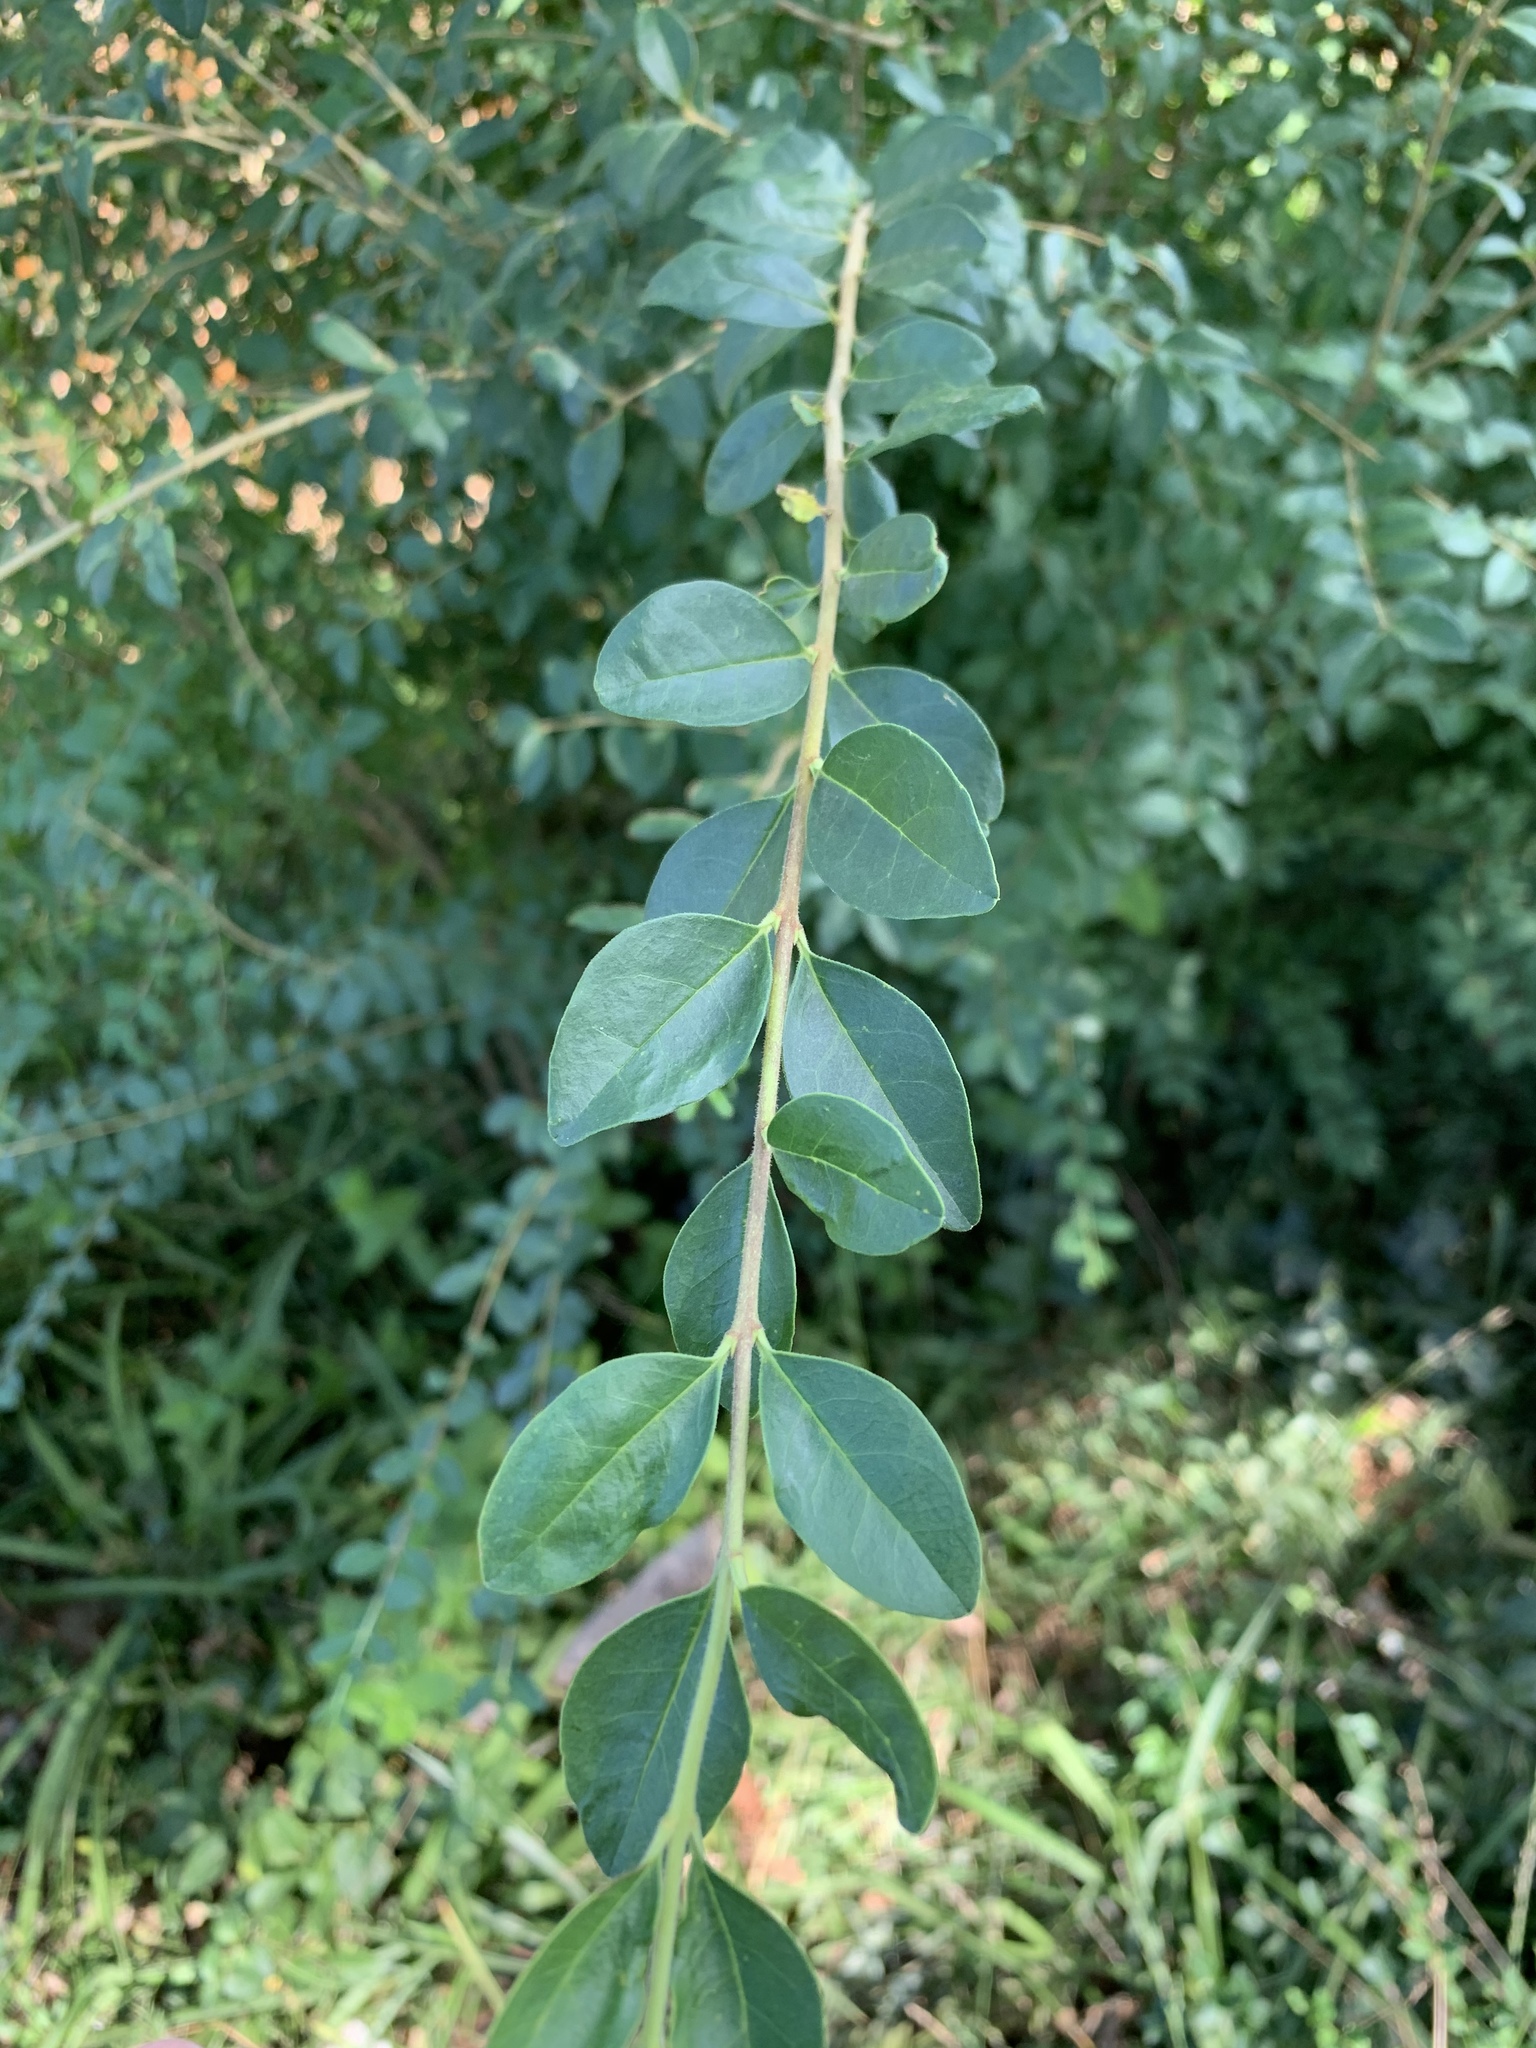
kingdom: Plantae
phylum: Tracheophyta
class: Magnoliopsida
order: Lamiales
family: Oleaceae
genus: Ligustrum
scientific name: Ligustrum sinense
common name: Chinese privet
